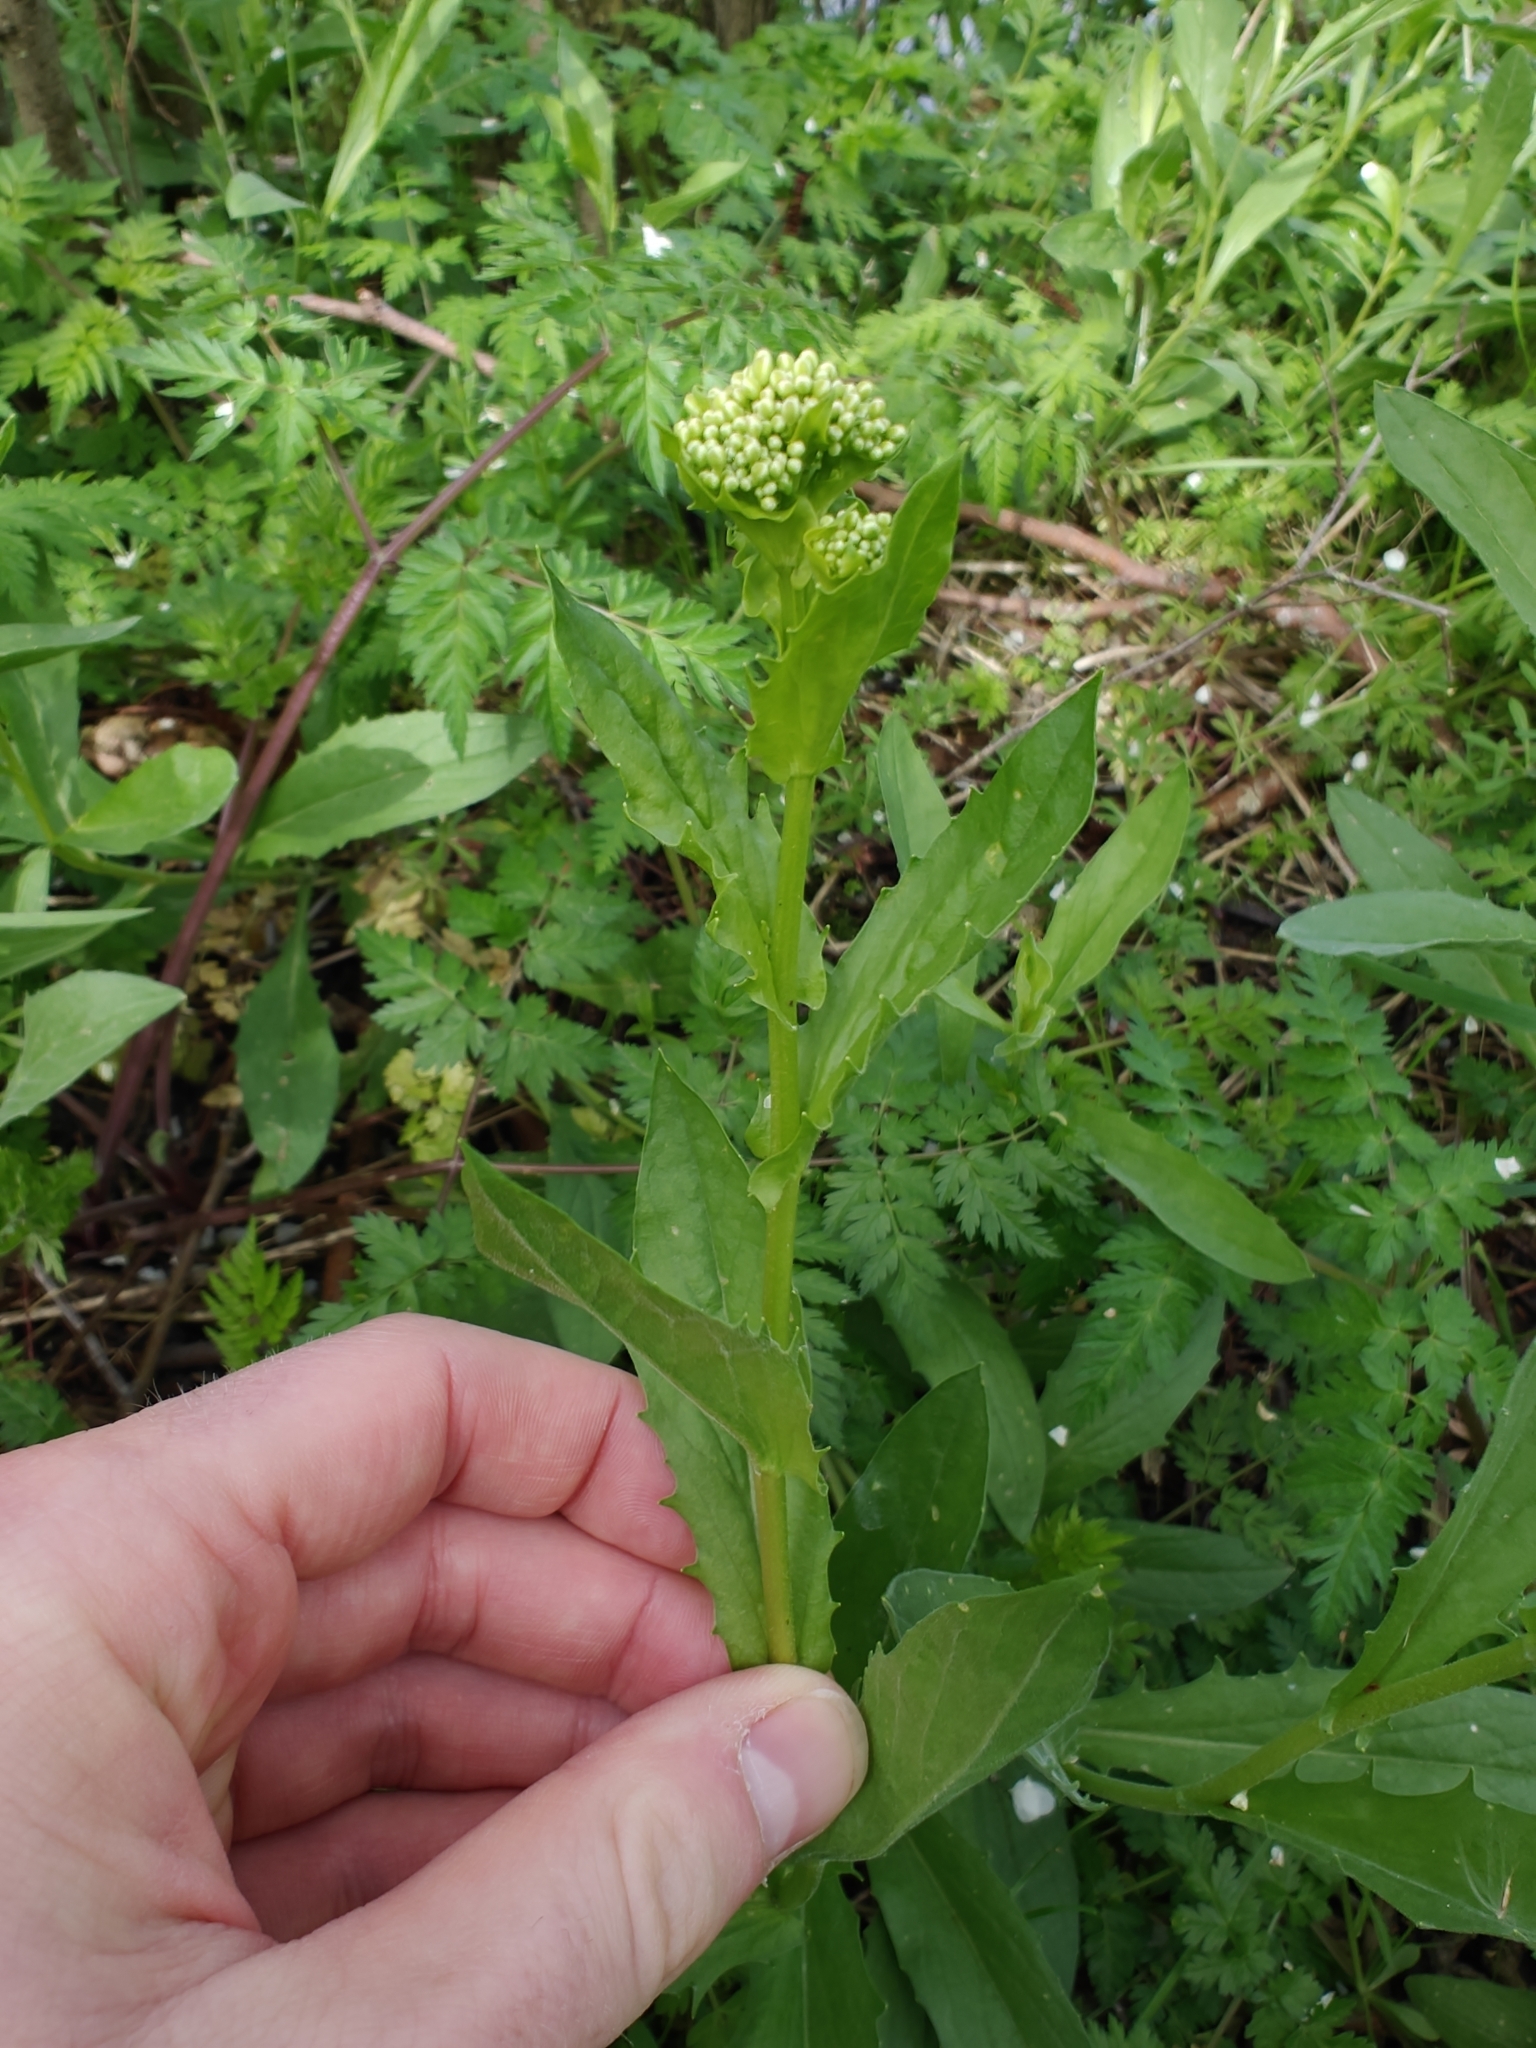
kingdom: Plantae
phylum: Tracheophyta
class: Magnoliopsida
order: Brassicales
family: Brassicaceae
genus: Lepidium
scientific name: Lepidium draba
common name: Hoary cress
